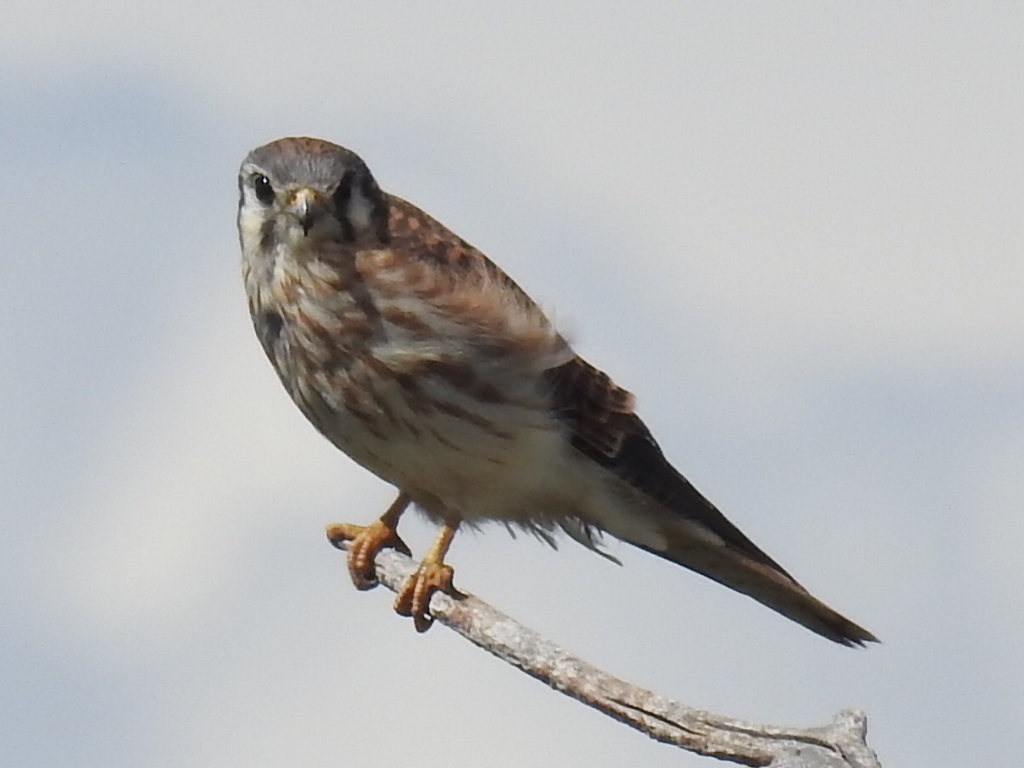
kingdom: Animalia
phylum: Chordata
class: Aves
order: Falconiformes
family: Falconidae
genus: Falco
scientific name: Falco sparverius
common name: American kestrel
